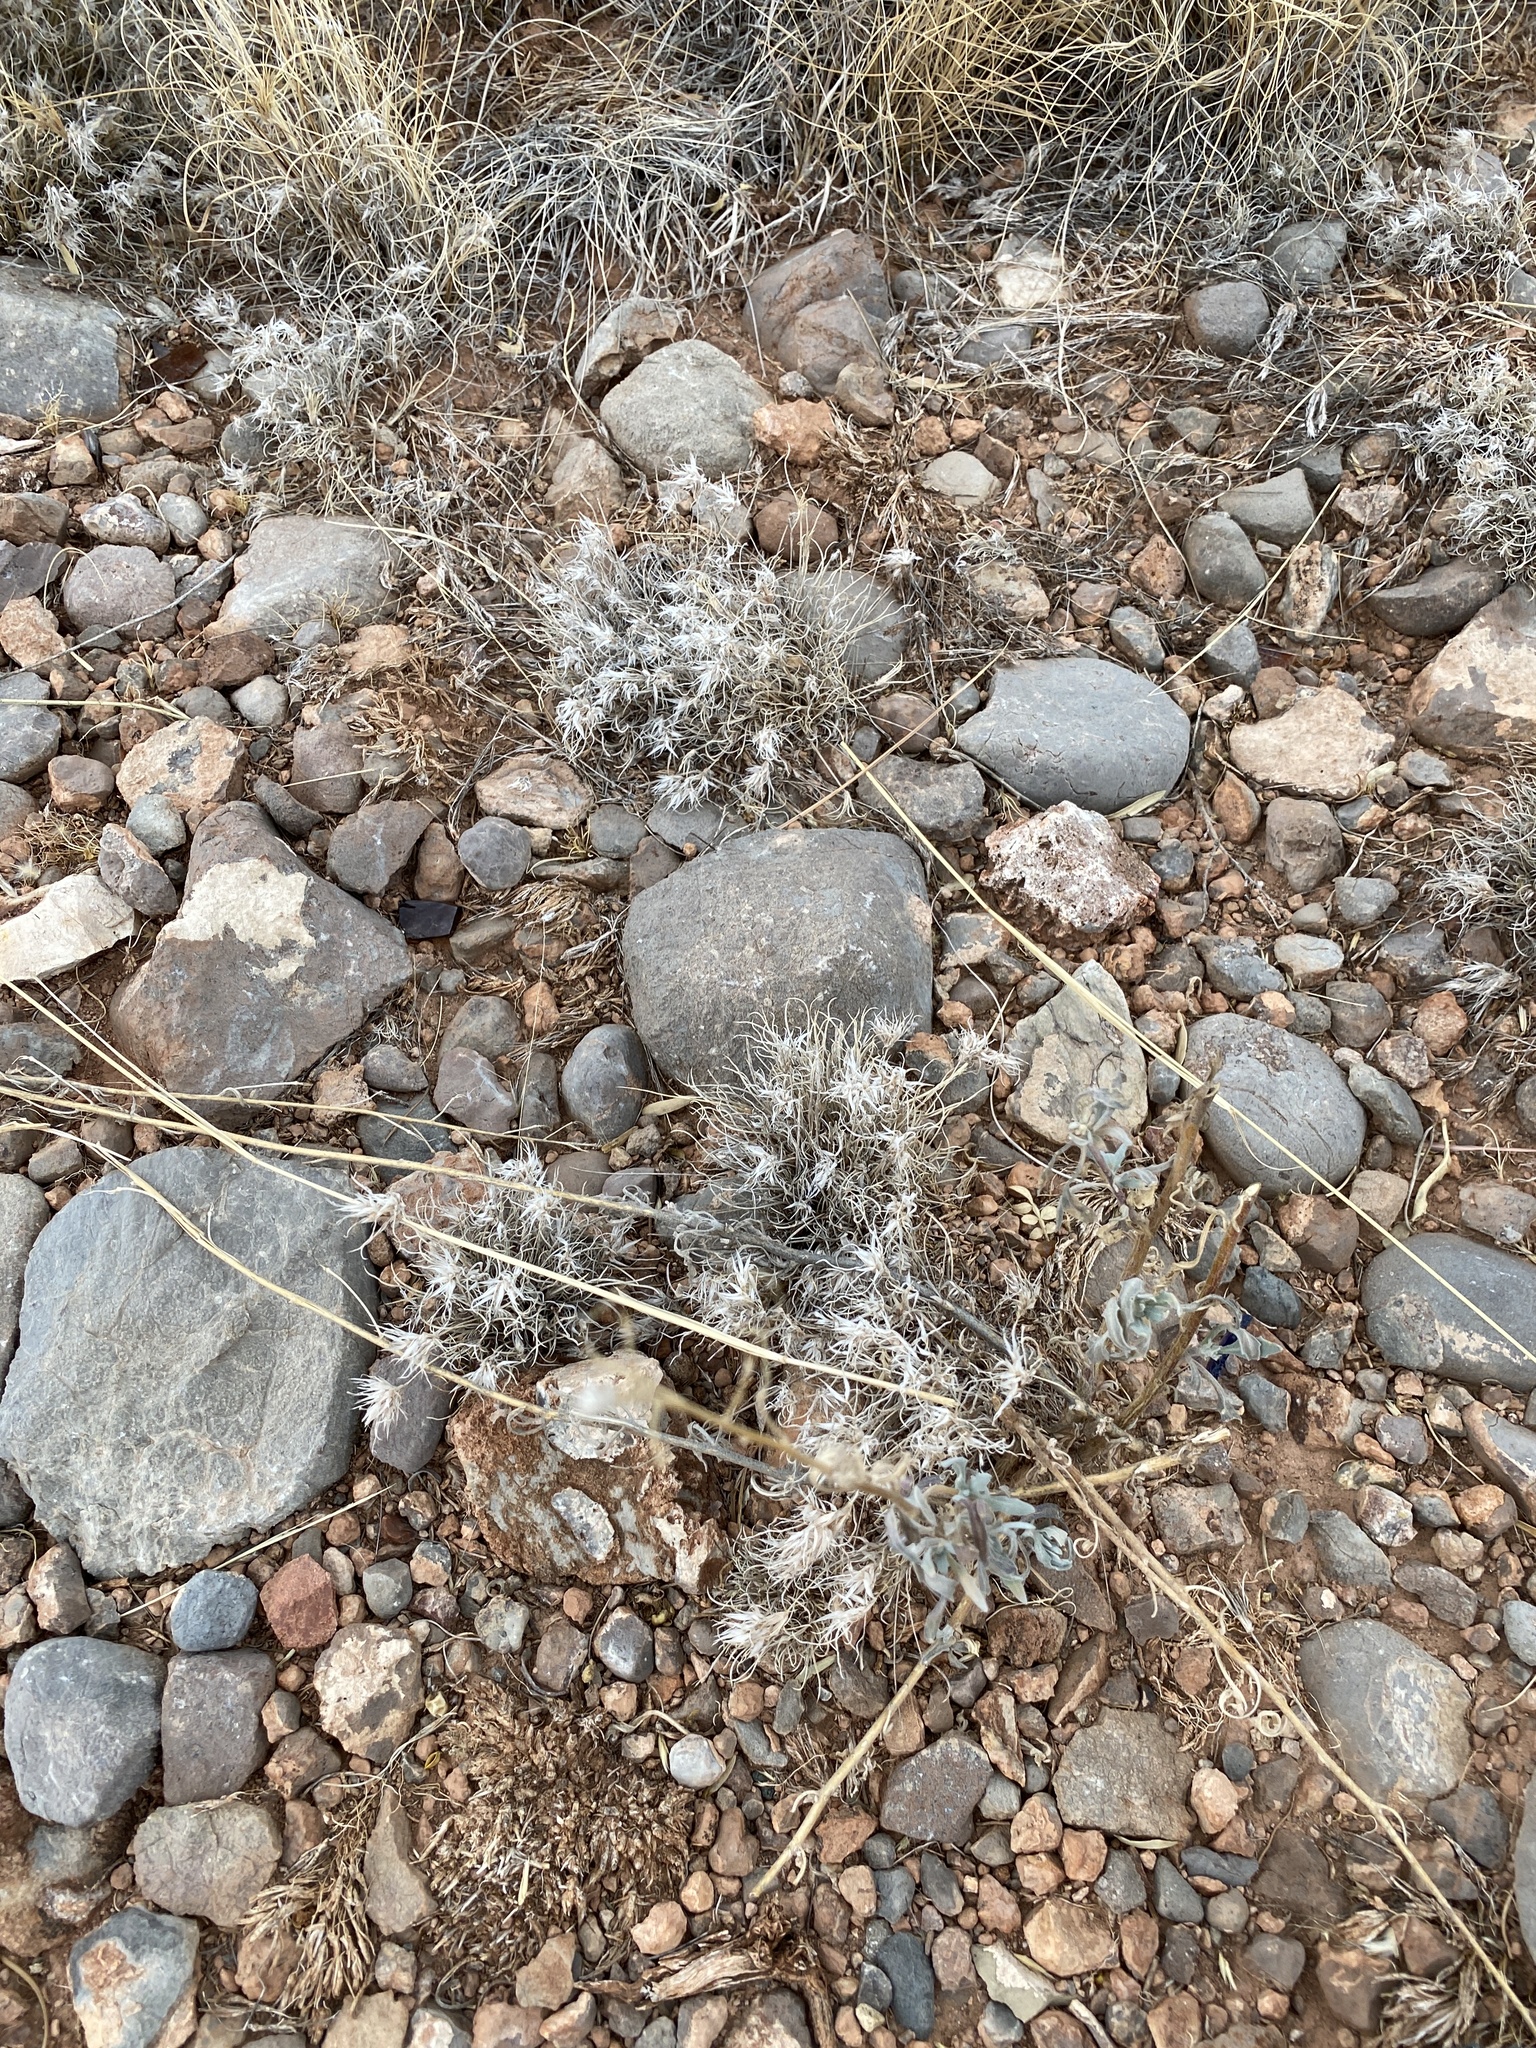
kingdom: Plantae
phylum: Tracheophyta
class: Liliopsida
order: Poales
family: Poaceae
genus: Dasyochloa
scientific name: Dasyochloa pulchella
